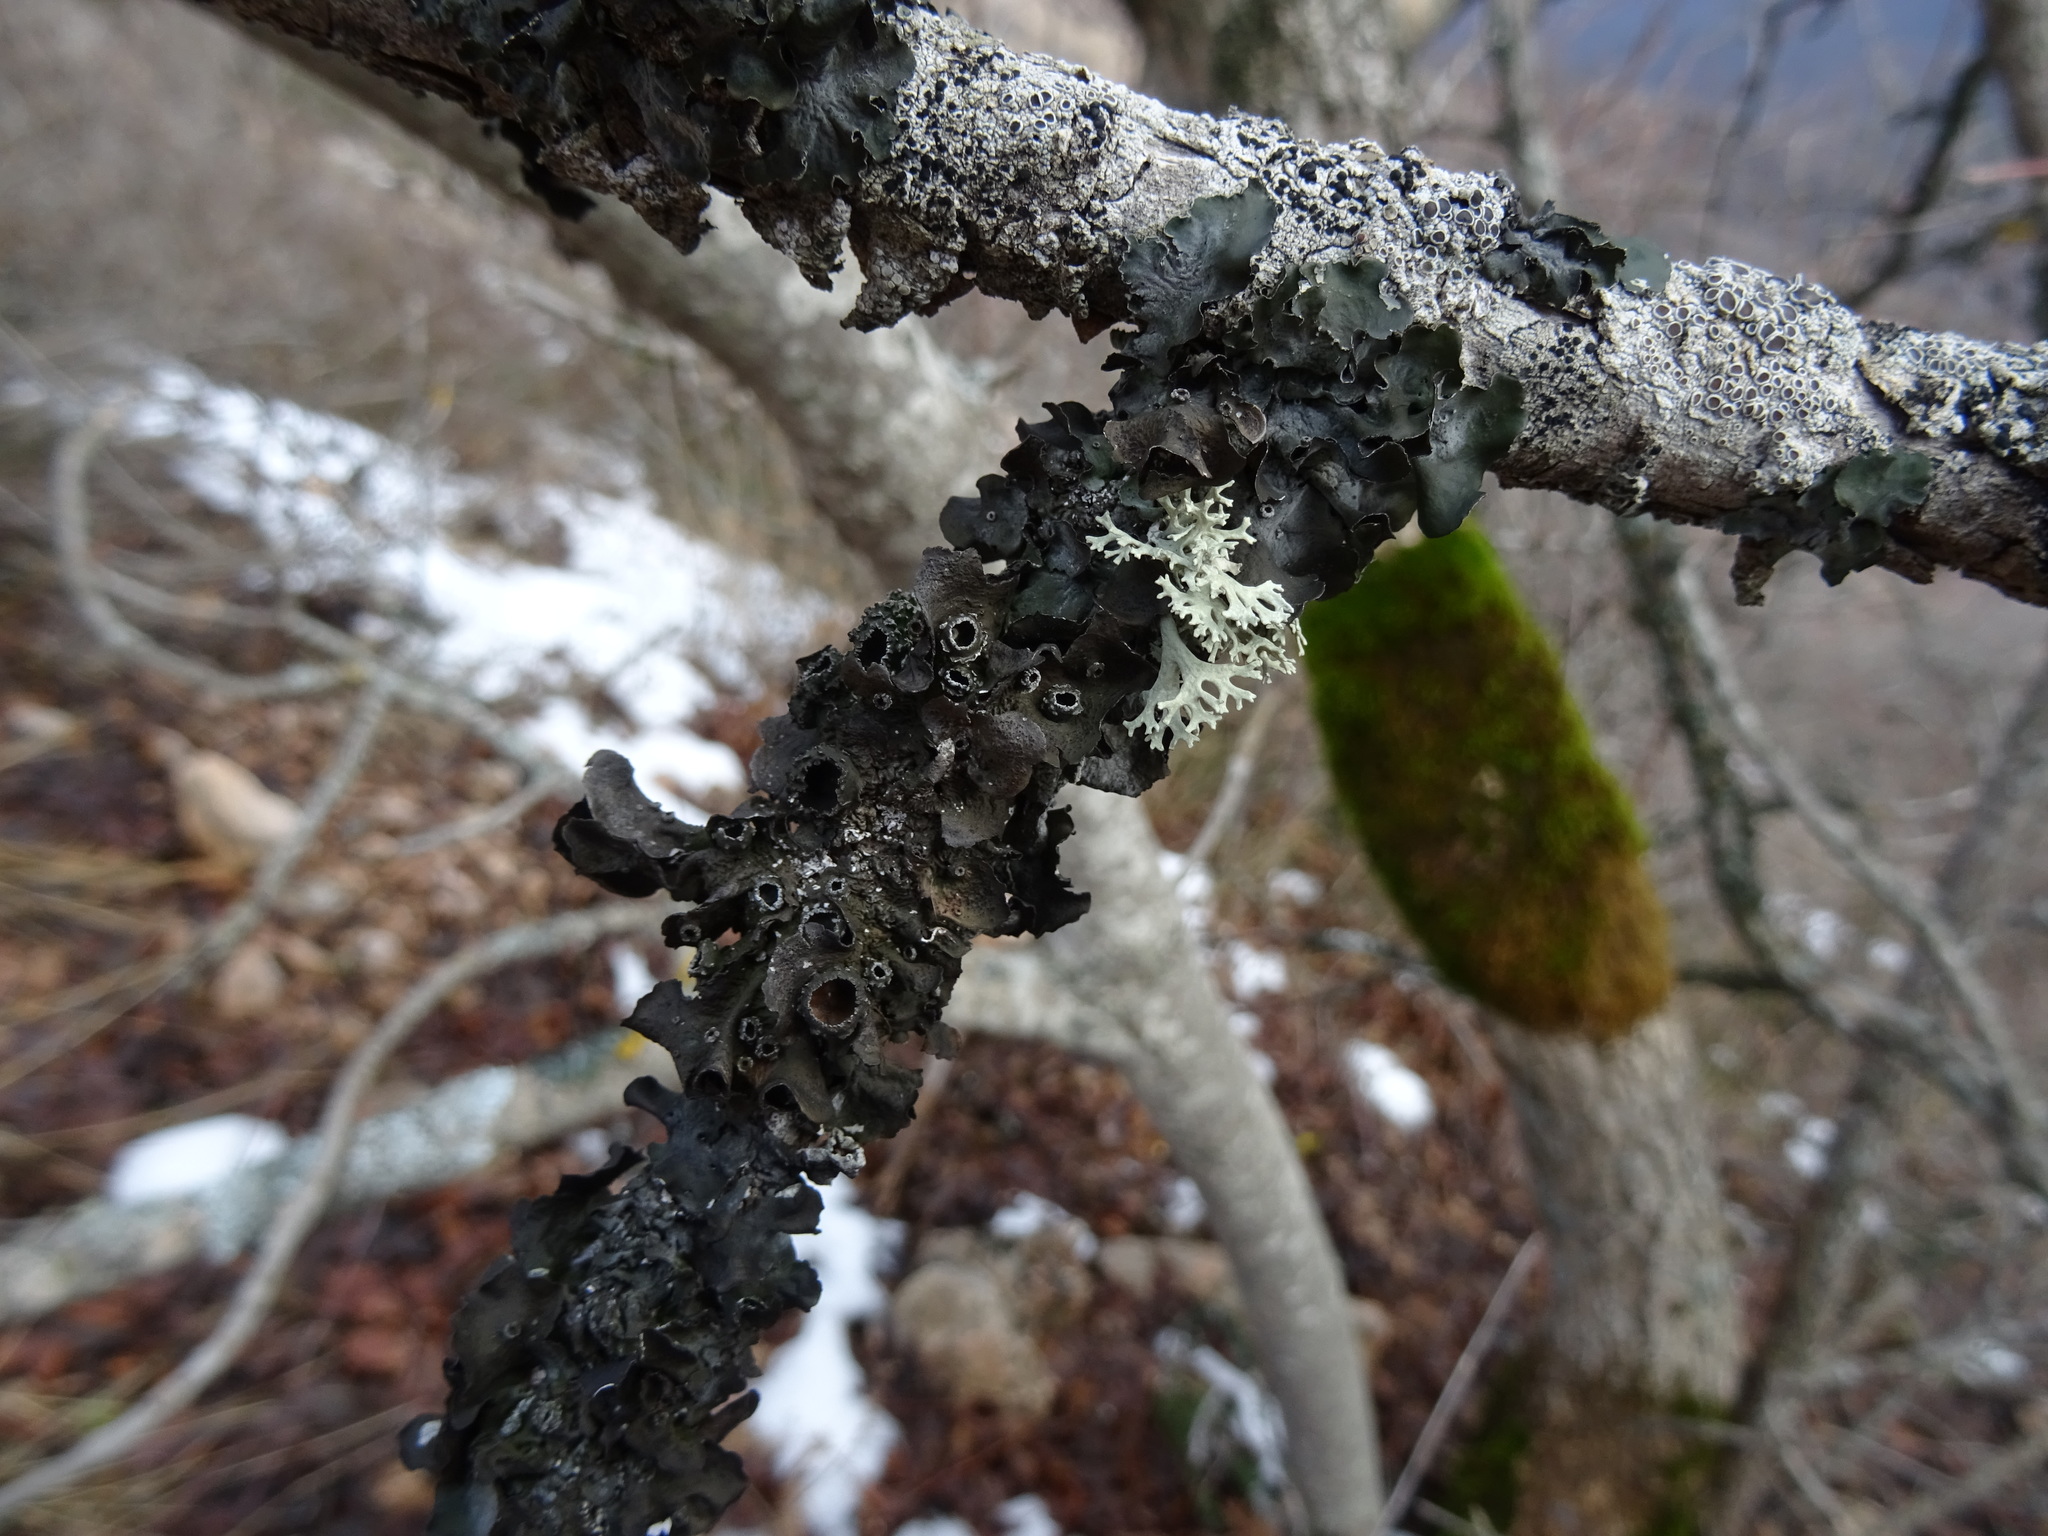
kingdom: Fungi
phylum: Ascomycota
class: Lecanoromycetes
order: Lecanorales
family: Parmeliaceae
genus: Pleurosticta
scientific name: Pleurosticta acetabulum
